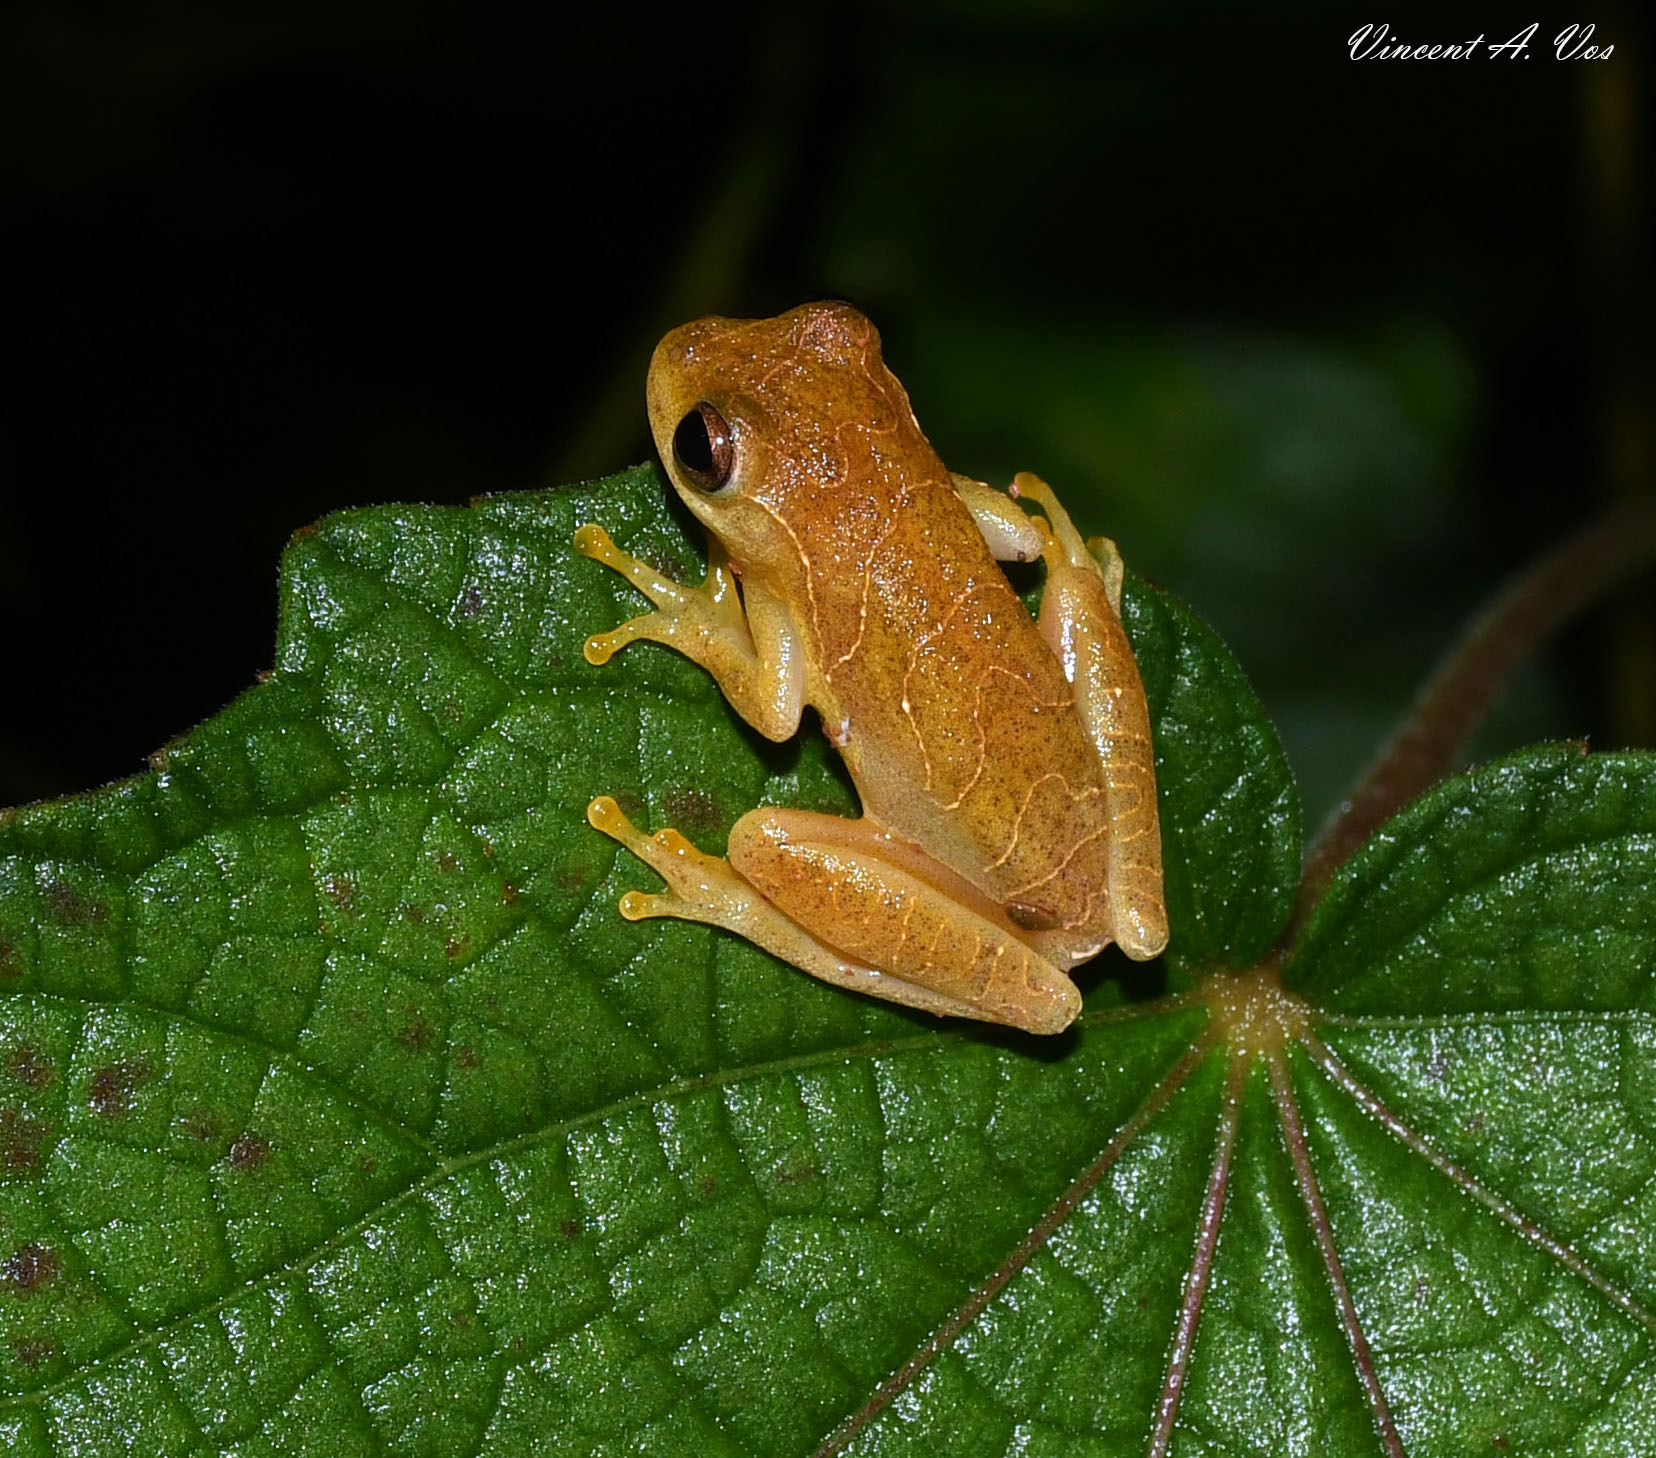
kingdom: Animalia
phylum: Chordata
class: Amphibia
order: Anura
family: Hylidae
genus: Dendropsophus
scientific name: Dendropsophus minutus
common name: Lesser treefrog
